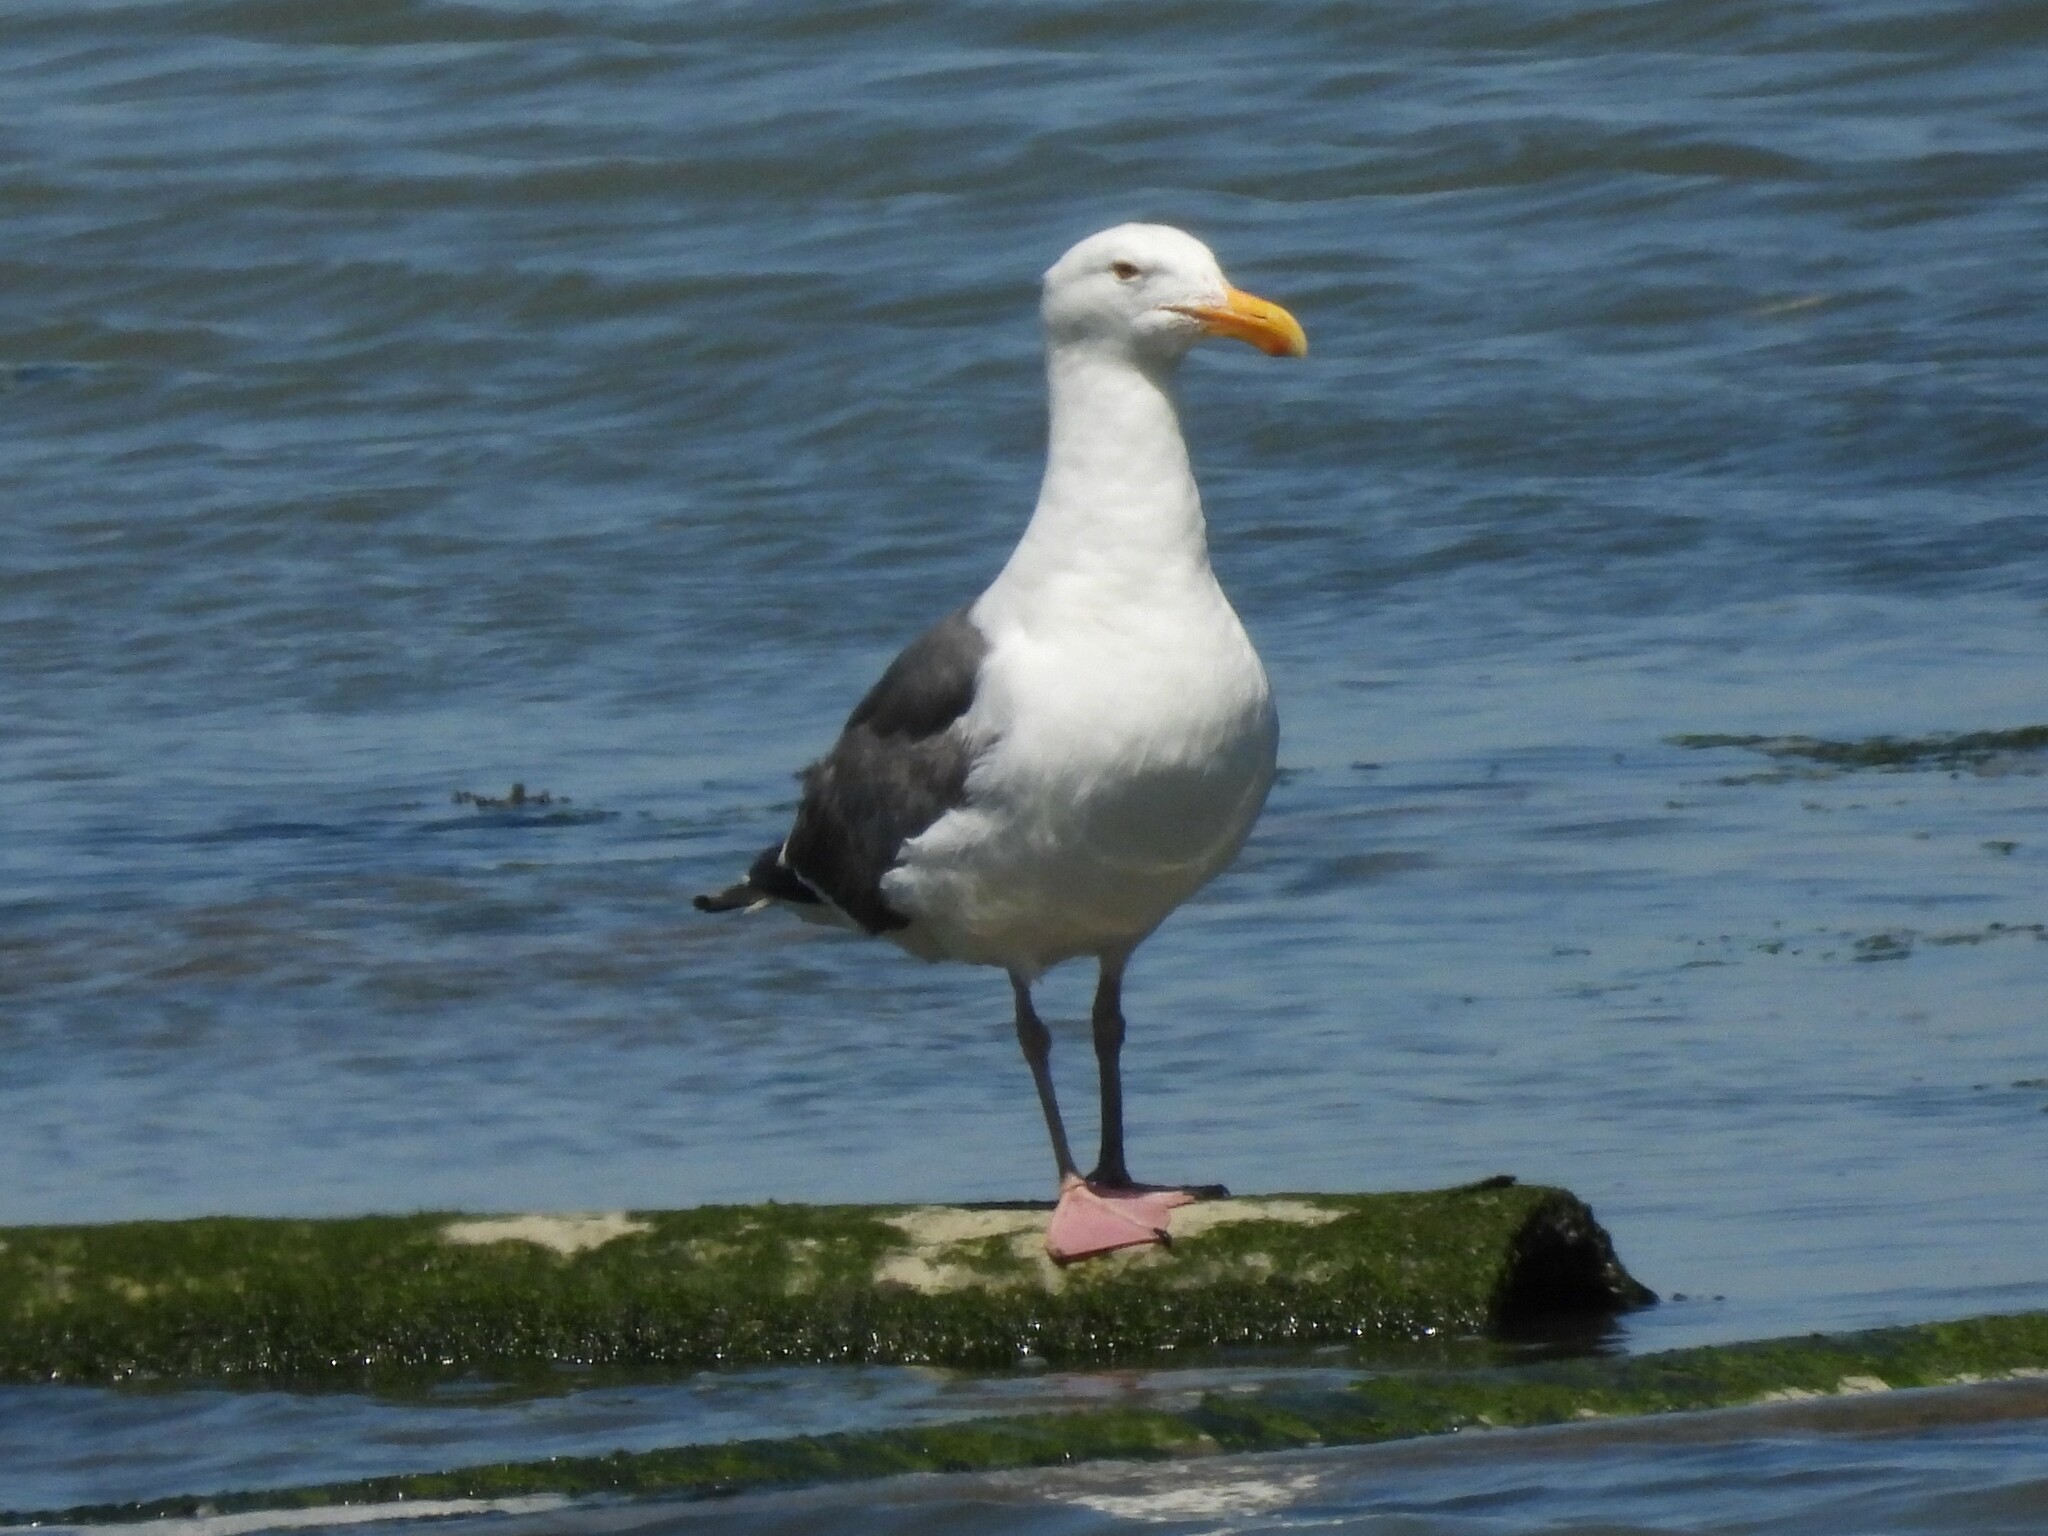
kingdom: Animalia
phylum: Chordata
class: Aves
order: Charadriiformes
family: Laridae
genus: Larus
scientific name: Larus occidentalis
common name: Western gull
